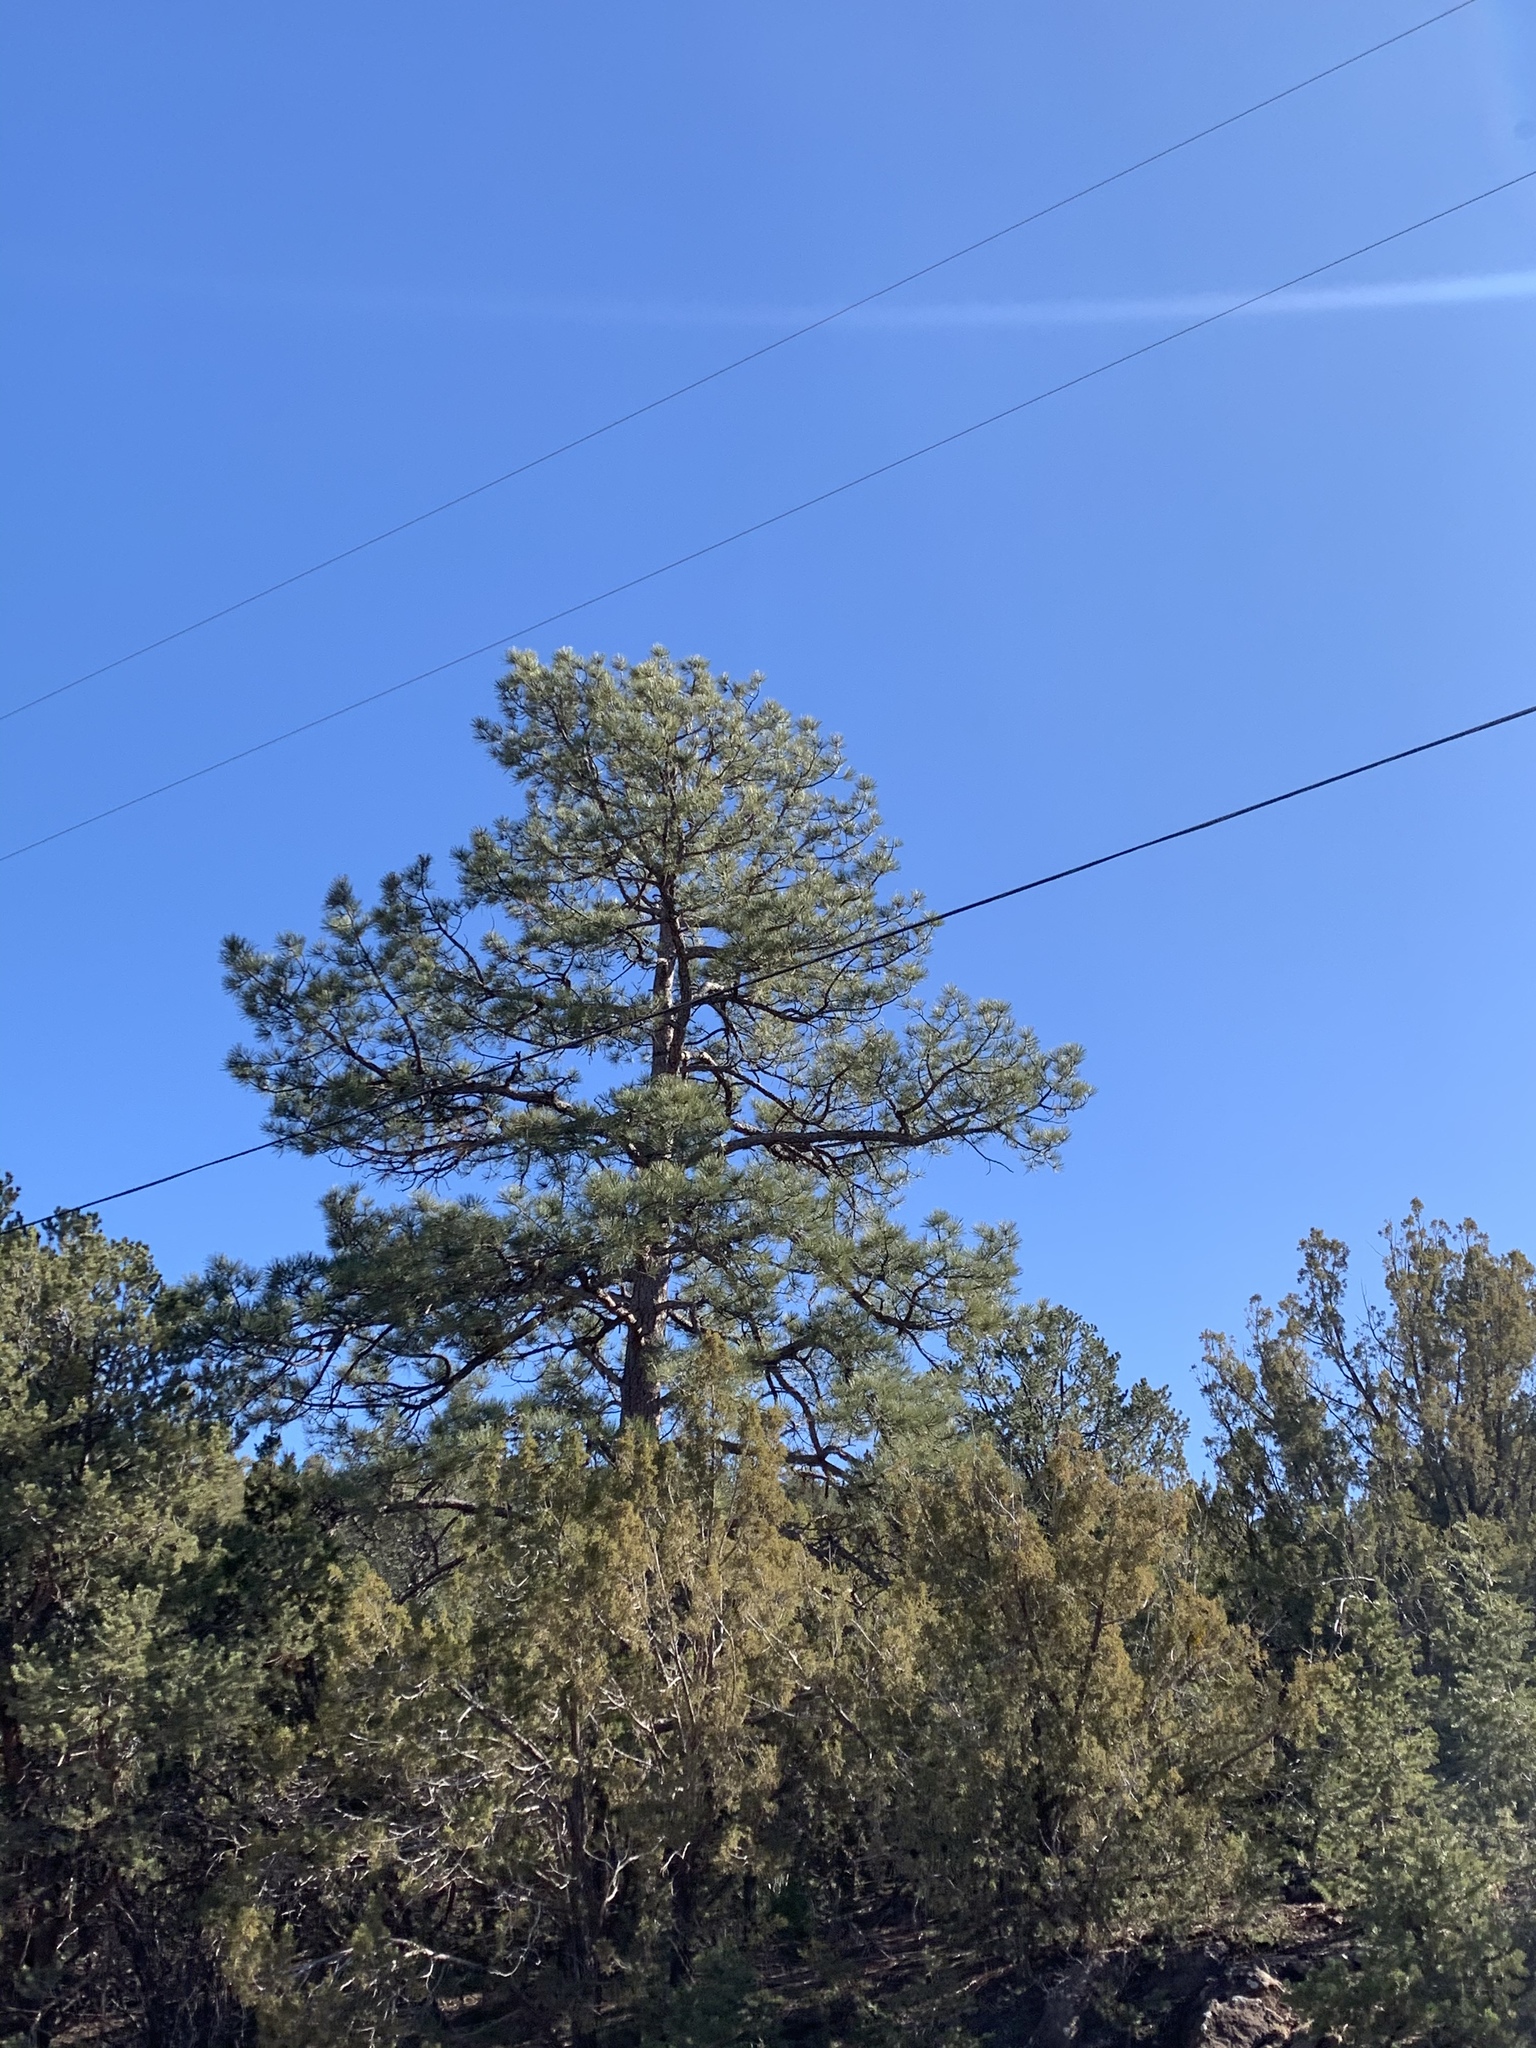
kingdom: Plantae
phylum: Tracheophyta
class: Pinopsida
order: Pinales
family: Pinaceae
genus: Pinus
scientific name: Pinus ponderosa
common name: Western yellow-pine
